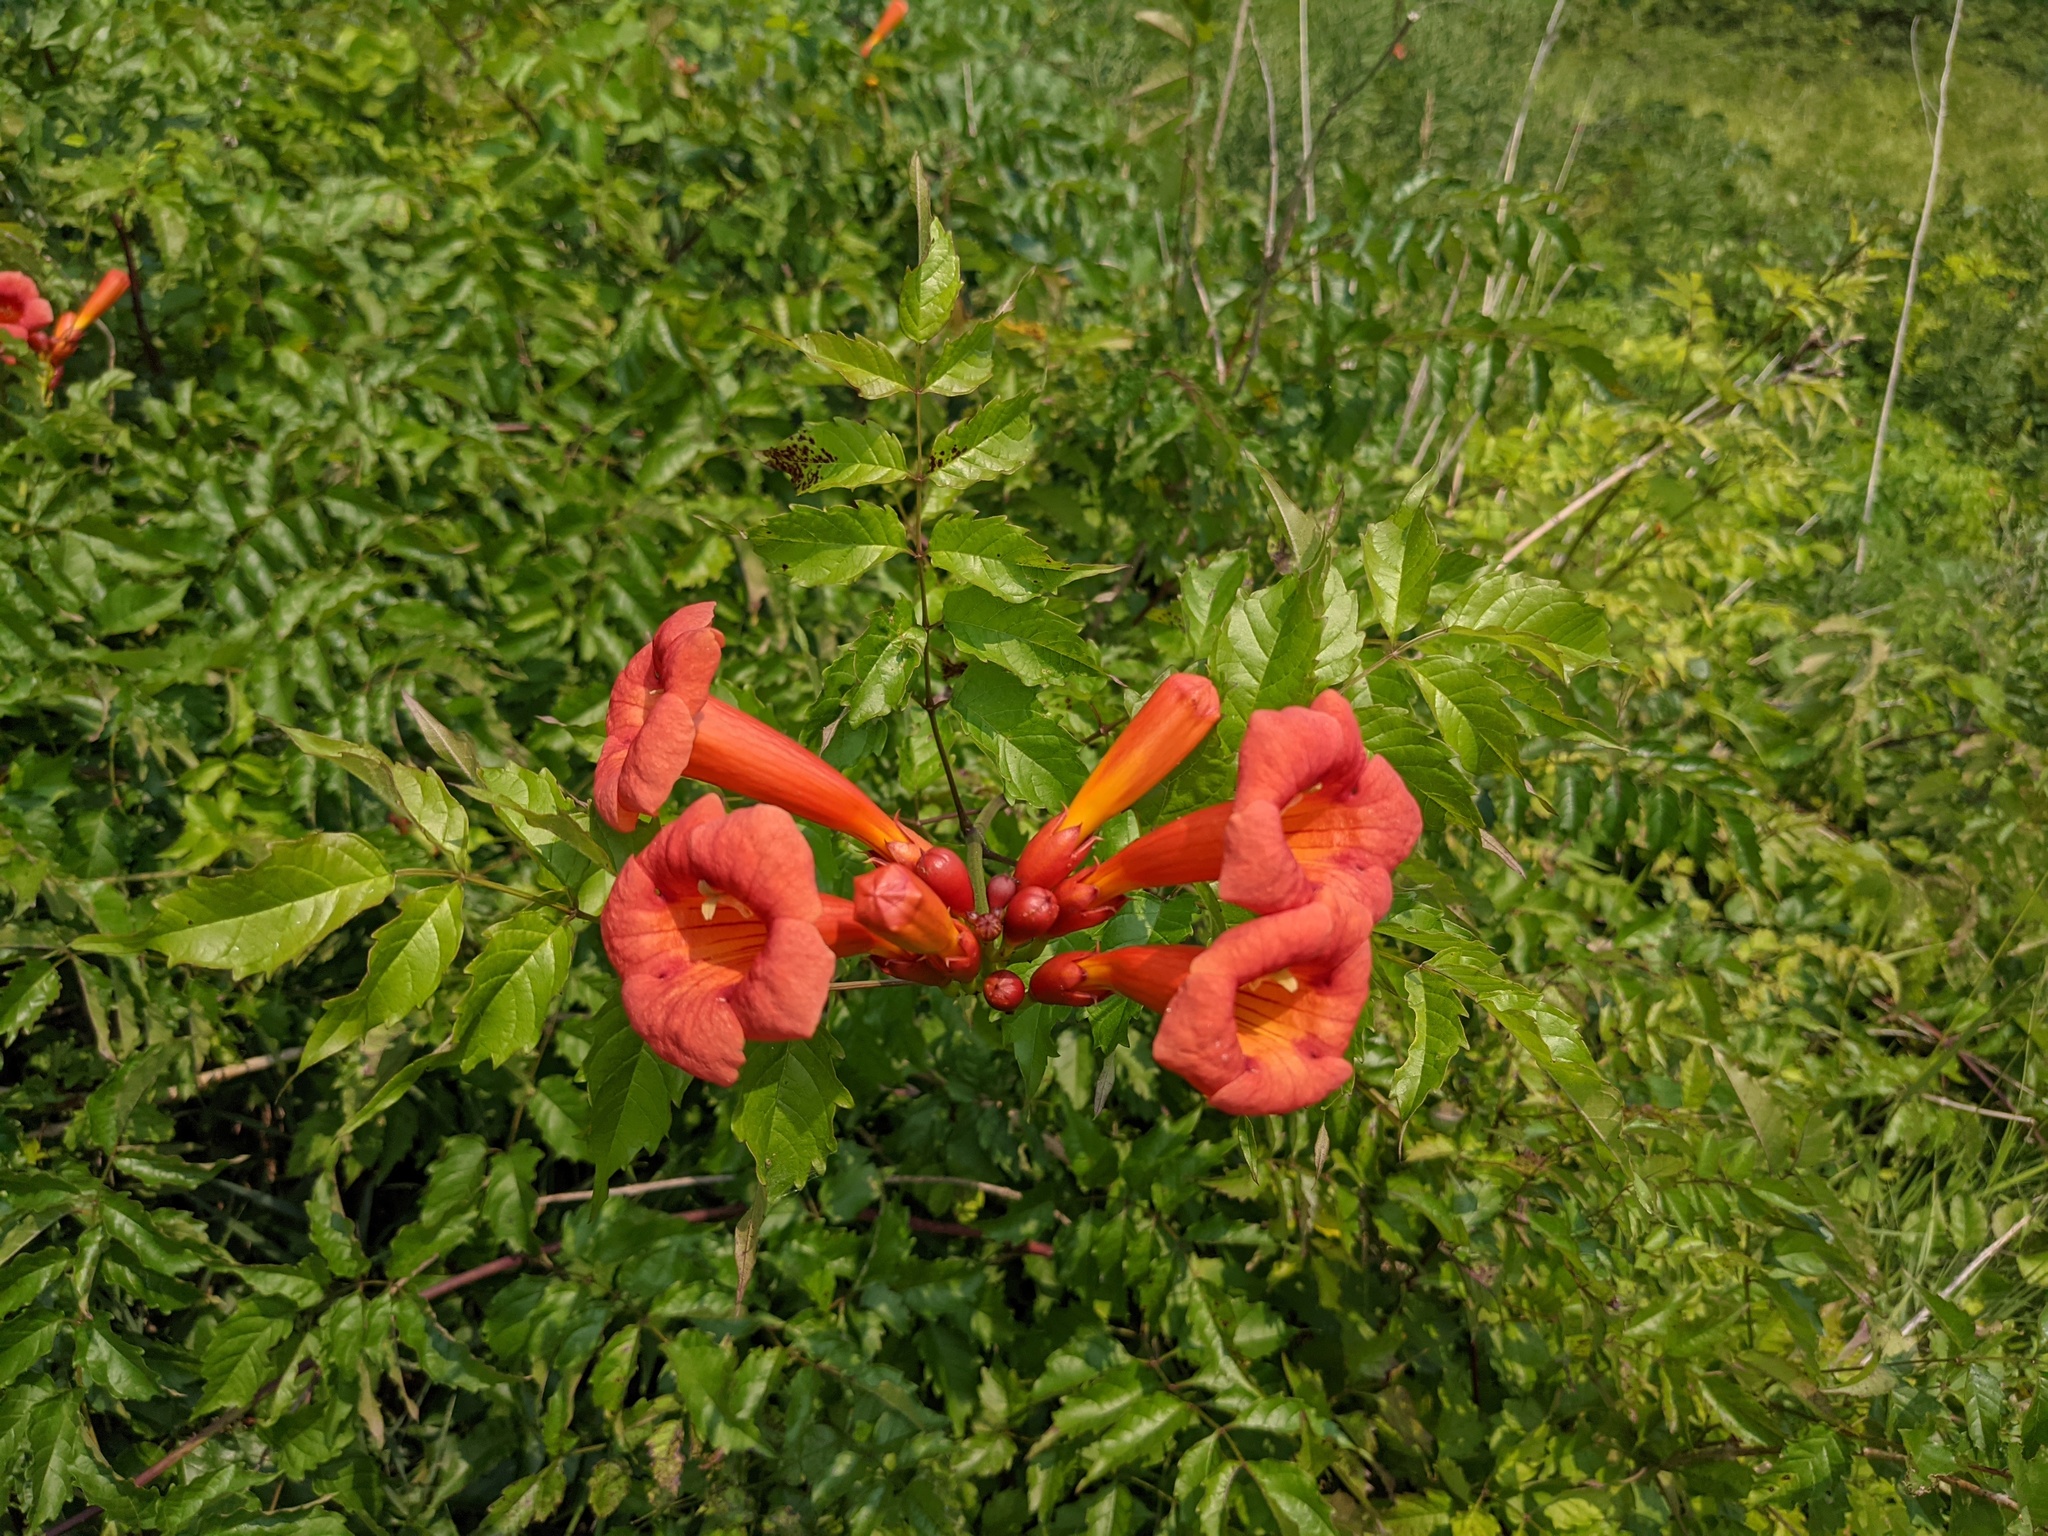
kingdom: Plantae
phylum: Tracheophyta
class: Magnoliopsida
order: Lamiales
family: Bignoniaceae
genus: Campsis
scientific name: Campsis radicans
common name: Trumpet-creeper
